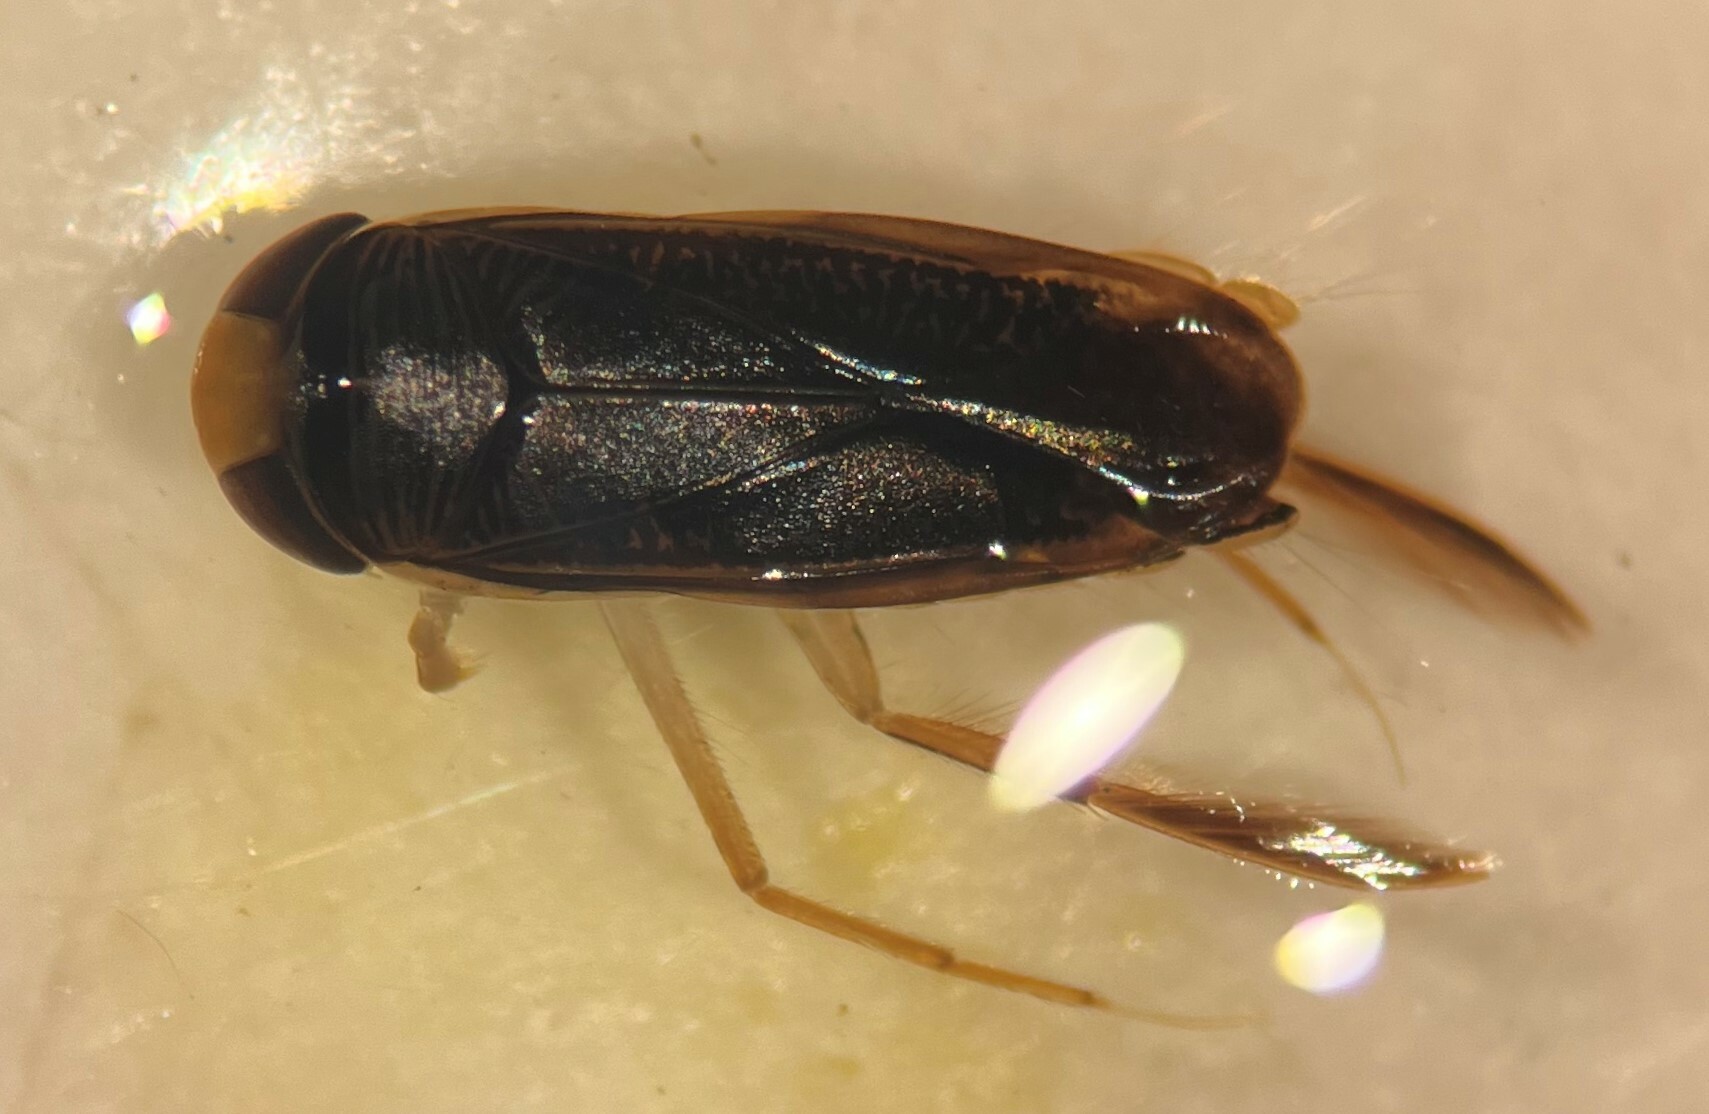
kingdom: Animalia
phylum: Arthropoda
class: Insecta
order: Hemiptera
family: Corixidae
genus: Sigara
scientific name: Sigara compressoidea
